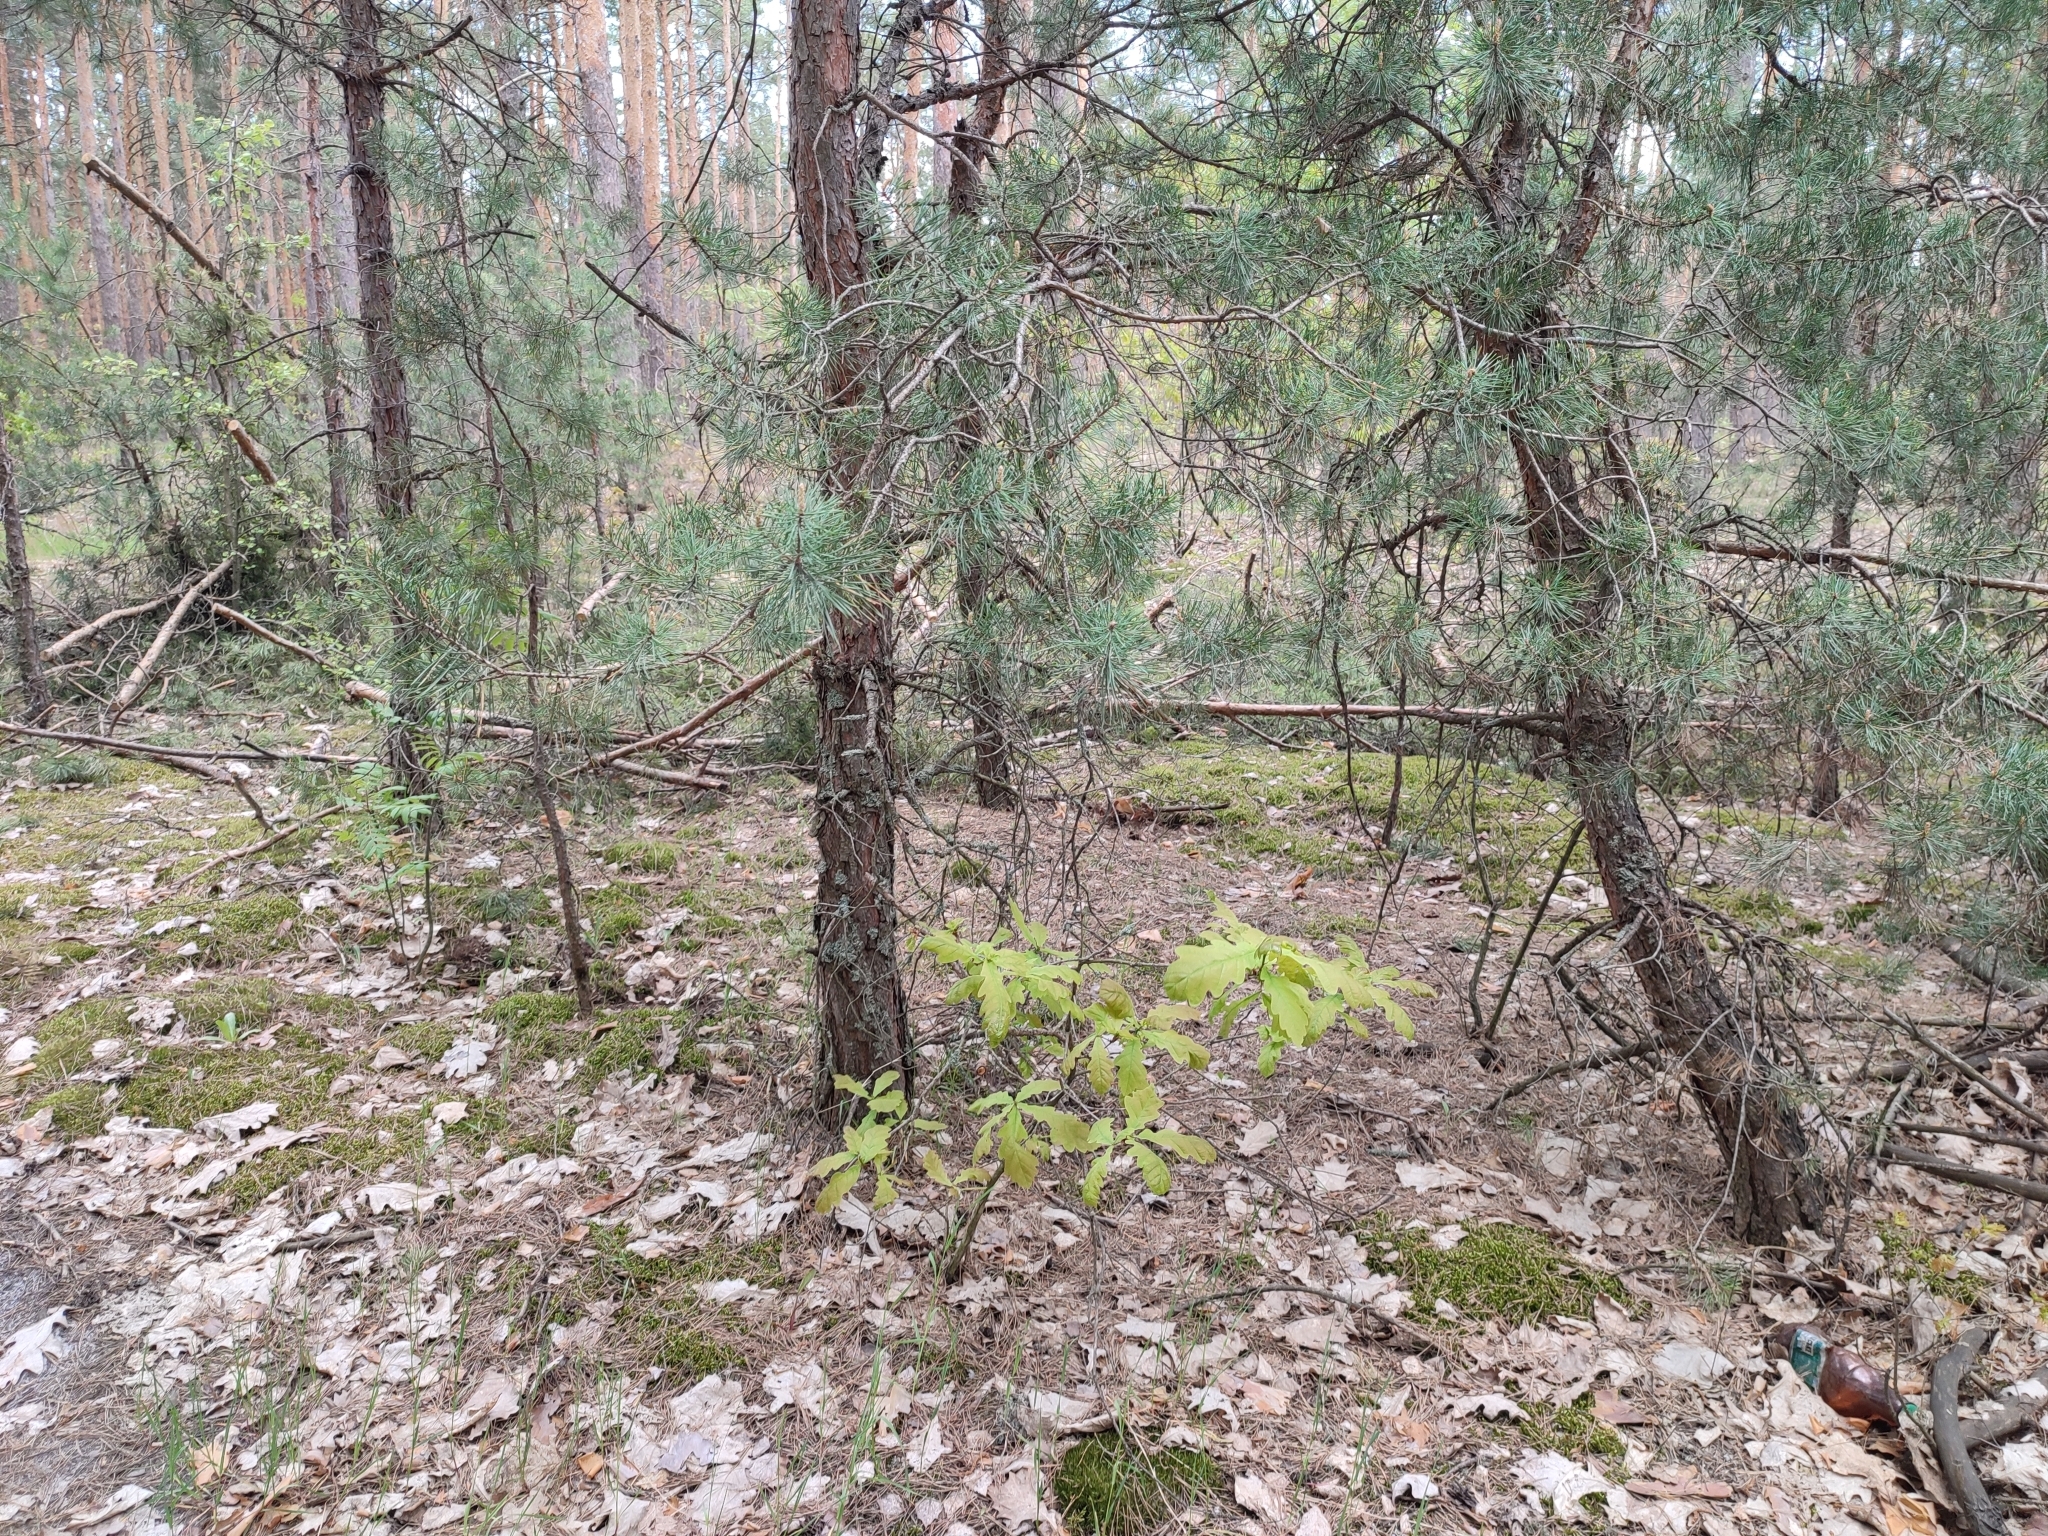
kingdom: Plantae
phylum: Tracheophyta
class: Magnoliopsida
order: Fagales
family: Fagaceae
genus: Quercus
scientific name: Quercus robur
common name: Pedunculate oak
